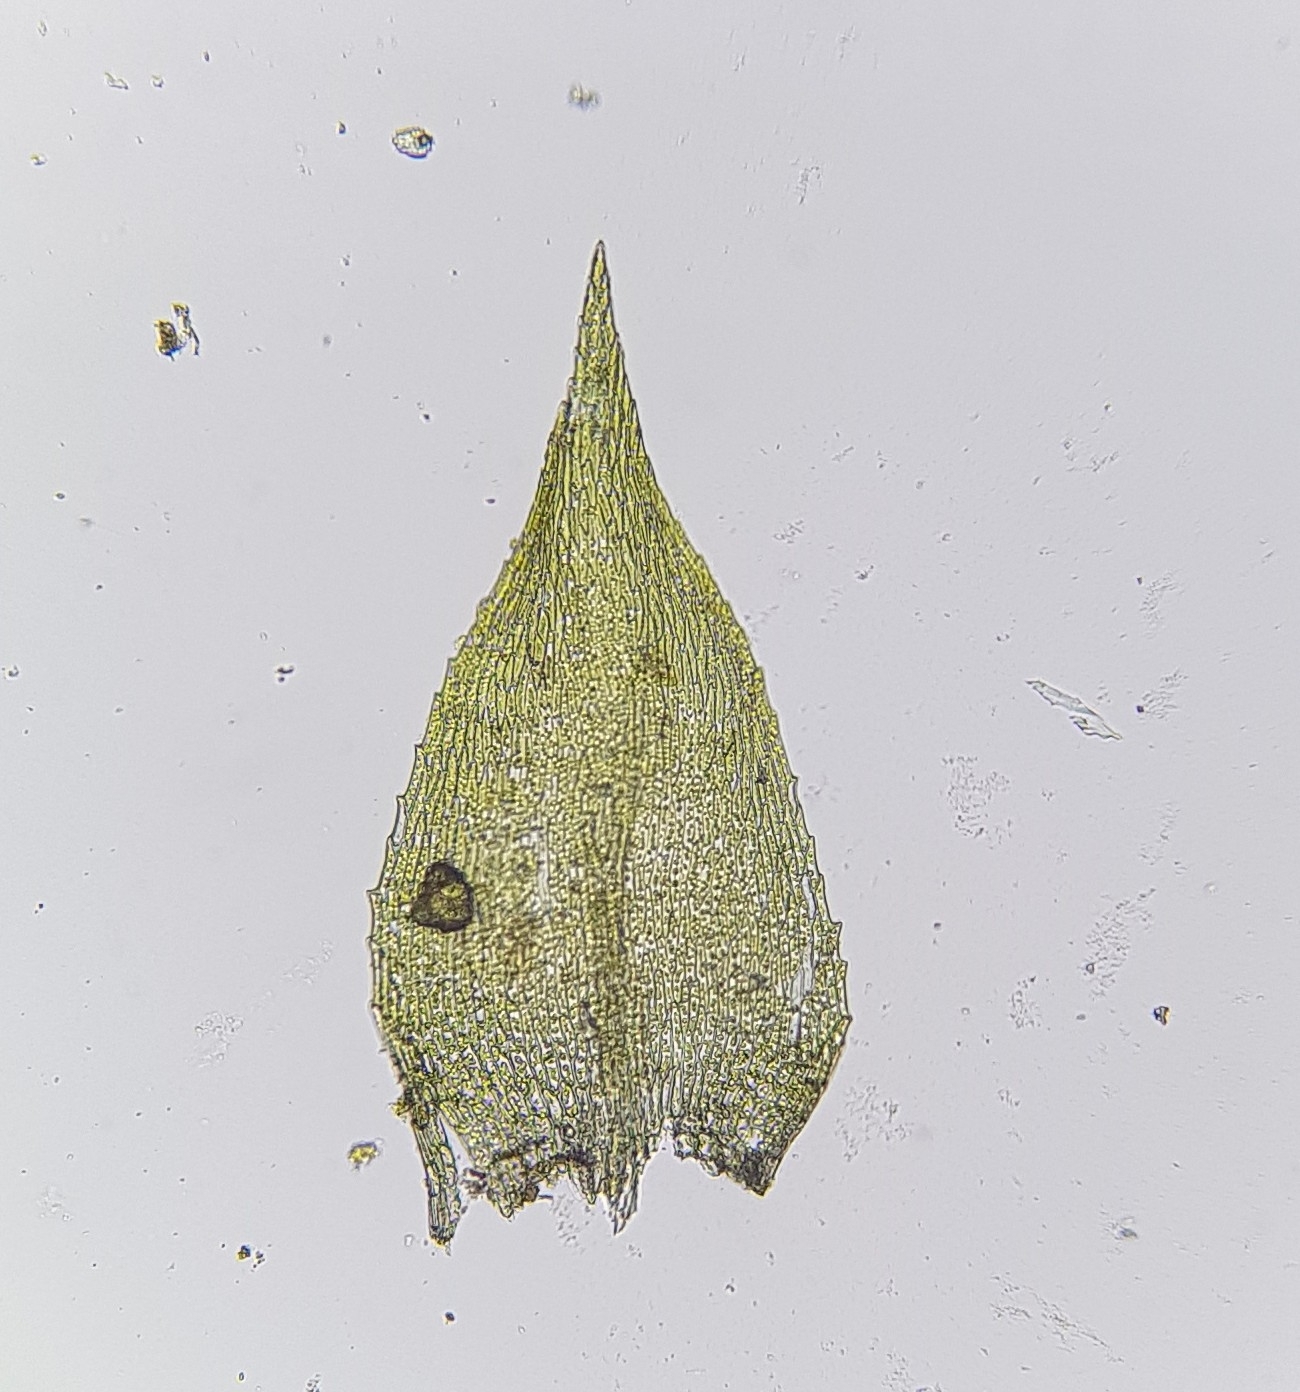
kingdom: Plantae
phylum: Bryophyta
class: Bryopsida
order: Hypnales
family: Brachytheciaceae
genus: Microeurhynchium
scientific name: Microeurhynchium pumilum
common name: Dwarf feather-moss
